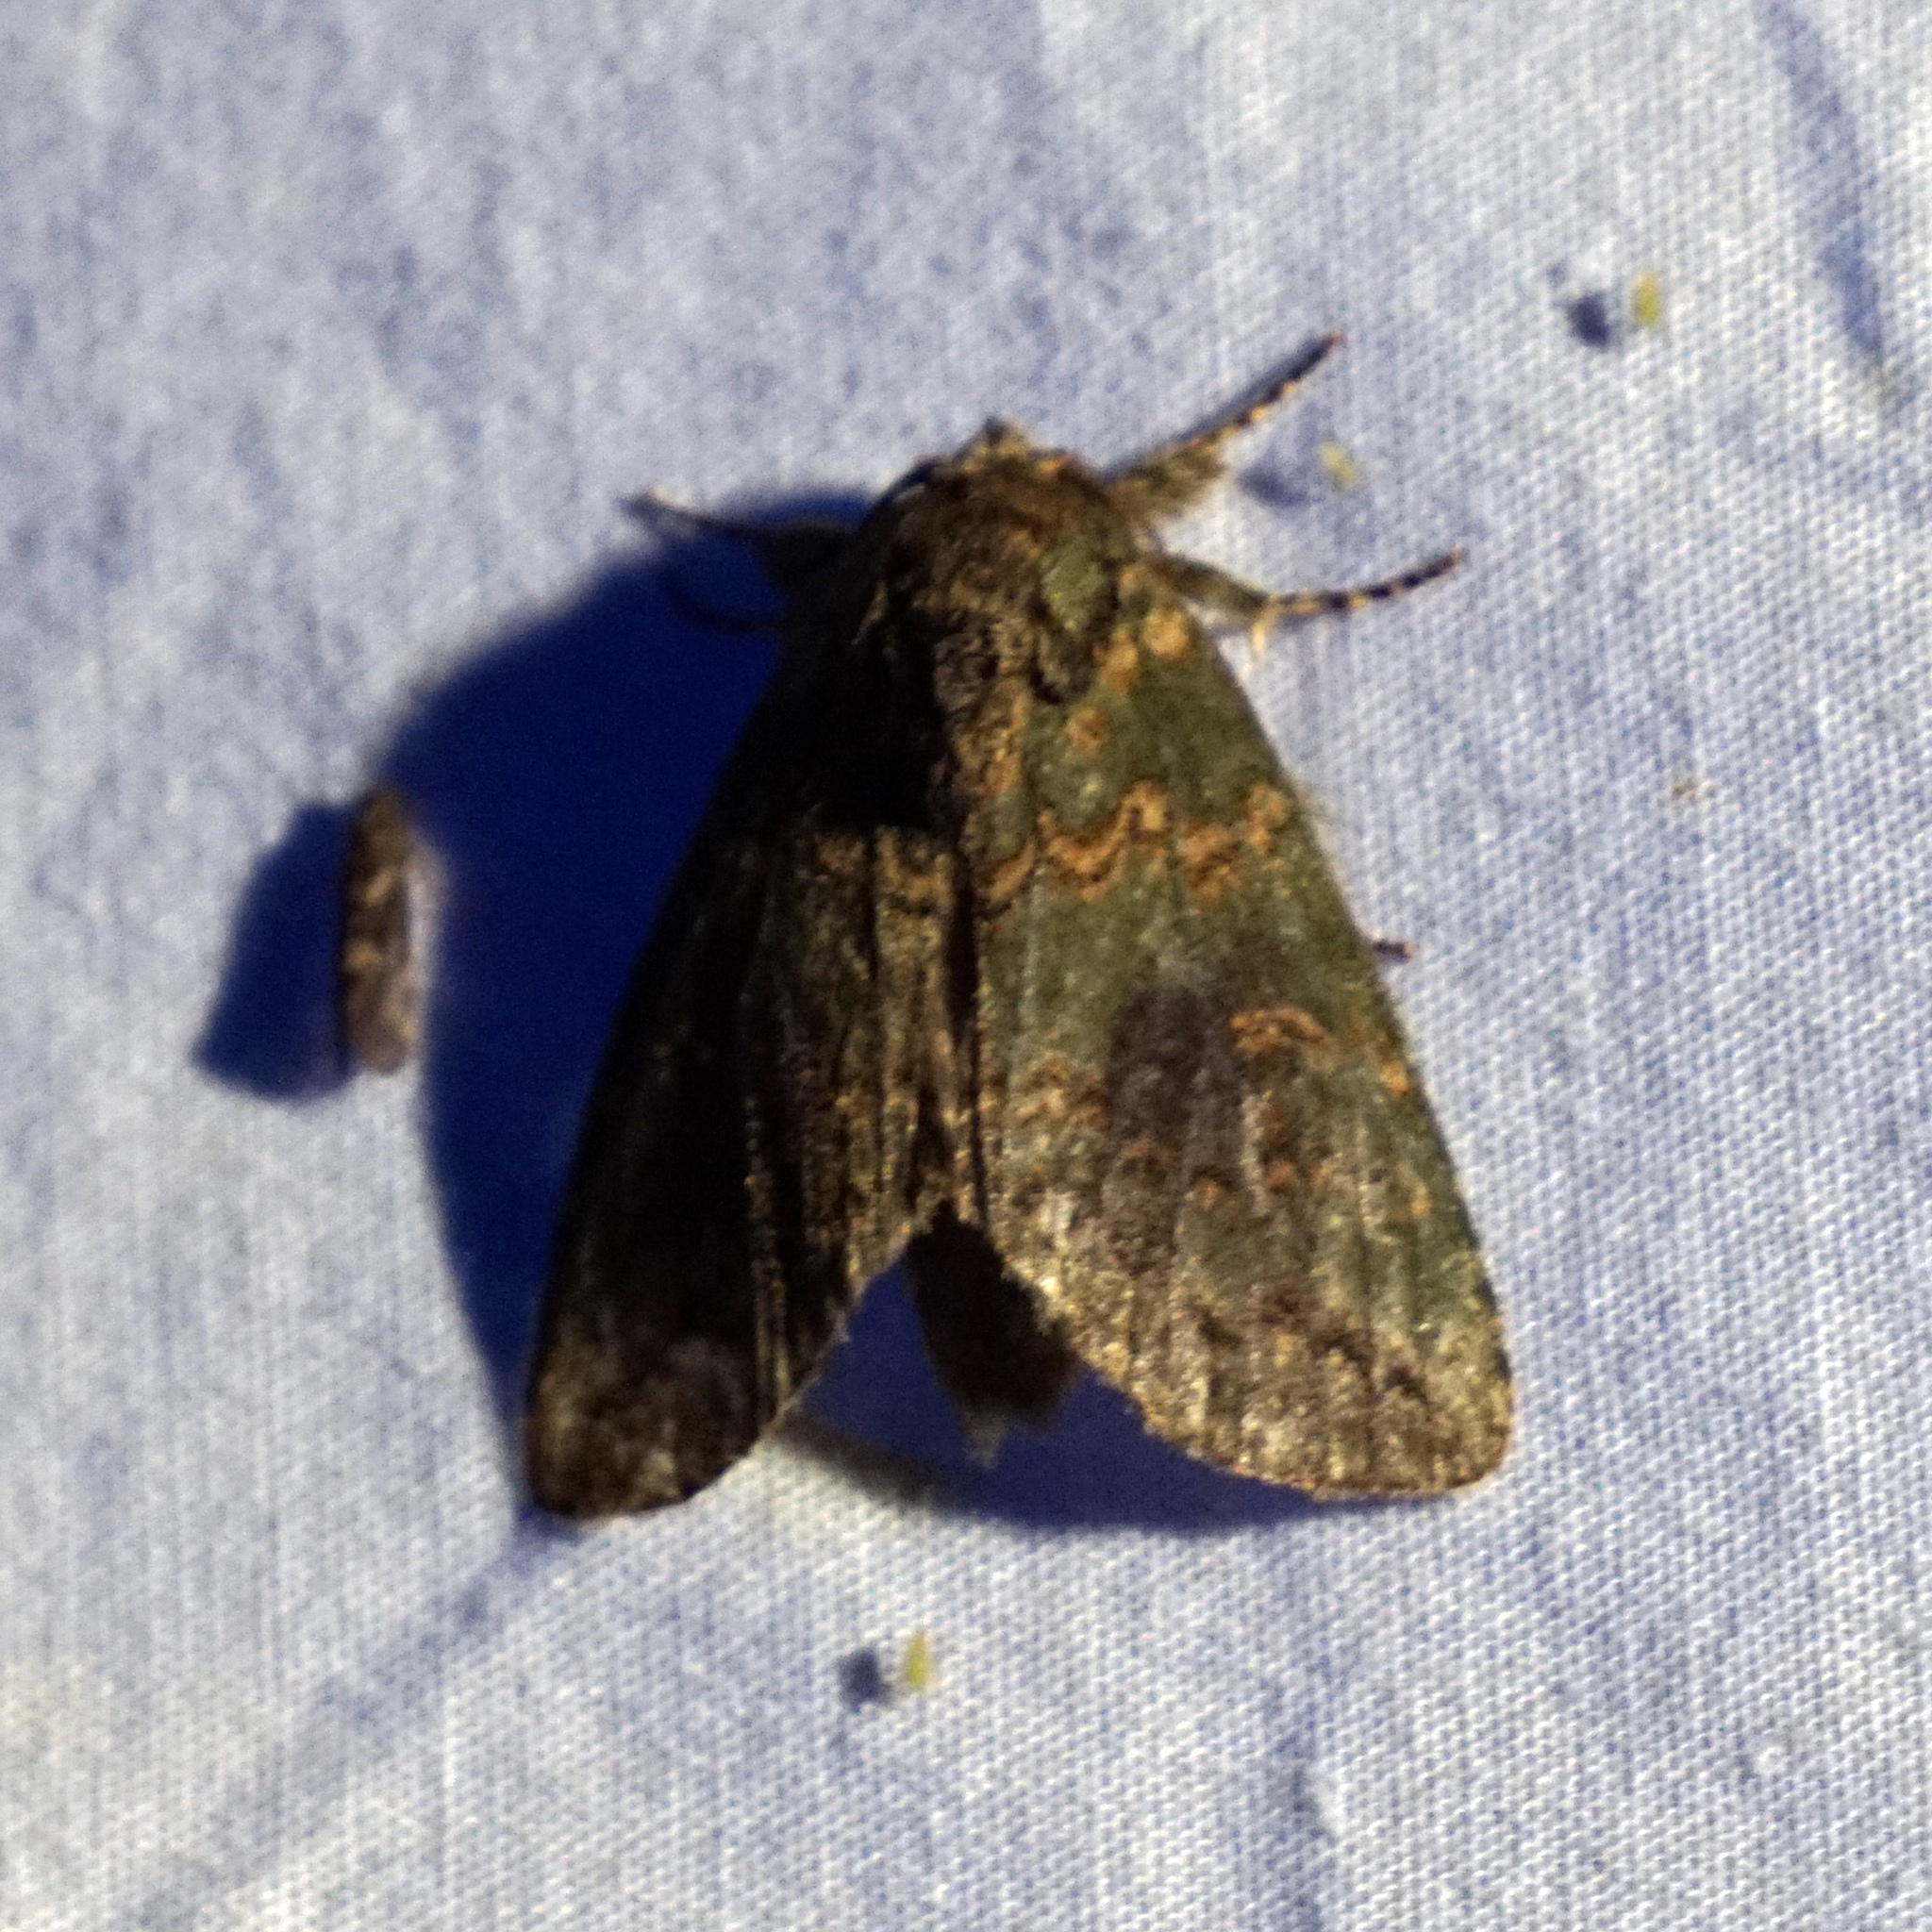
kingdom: Animalia
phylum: Arthropoda
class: Insecta
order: Lepidoptera
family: Notodontidae
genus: Disphragis
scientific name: Disphragis Cecrita biundata
